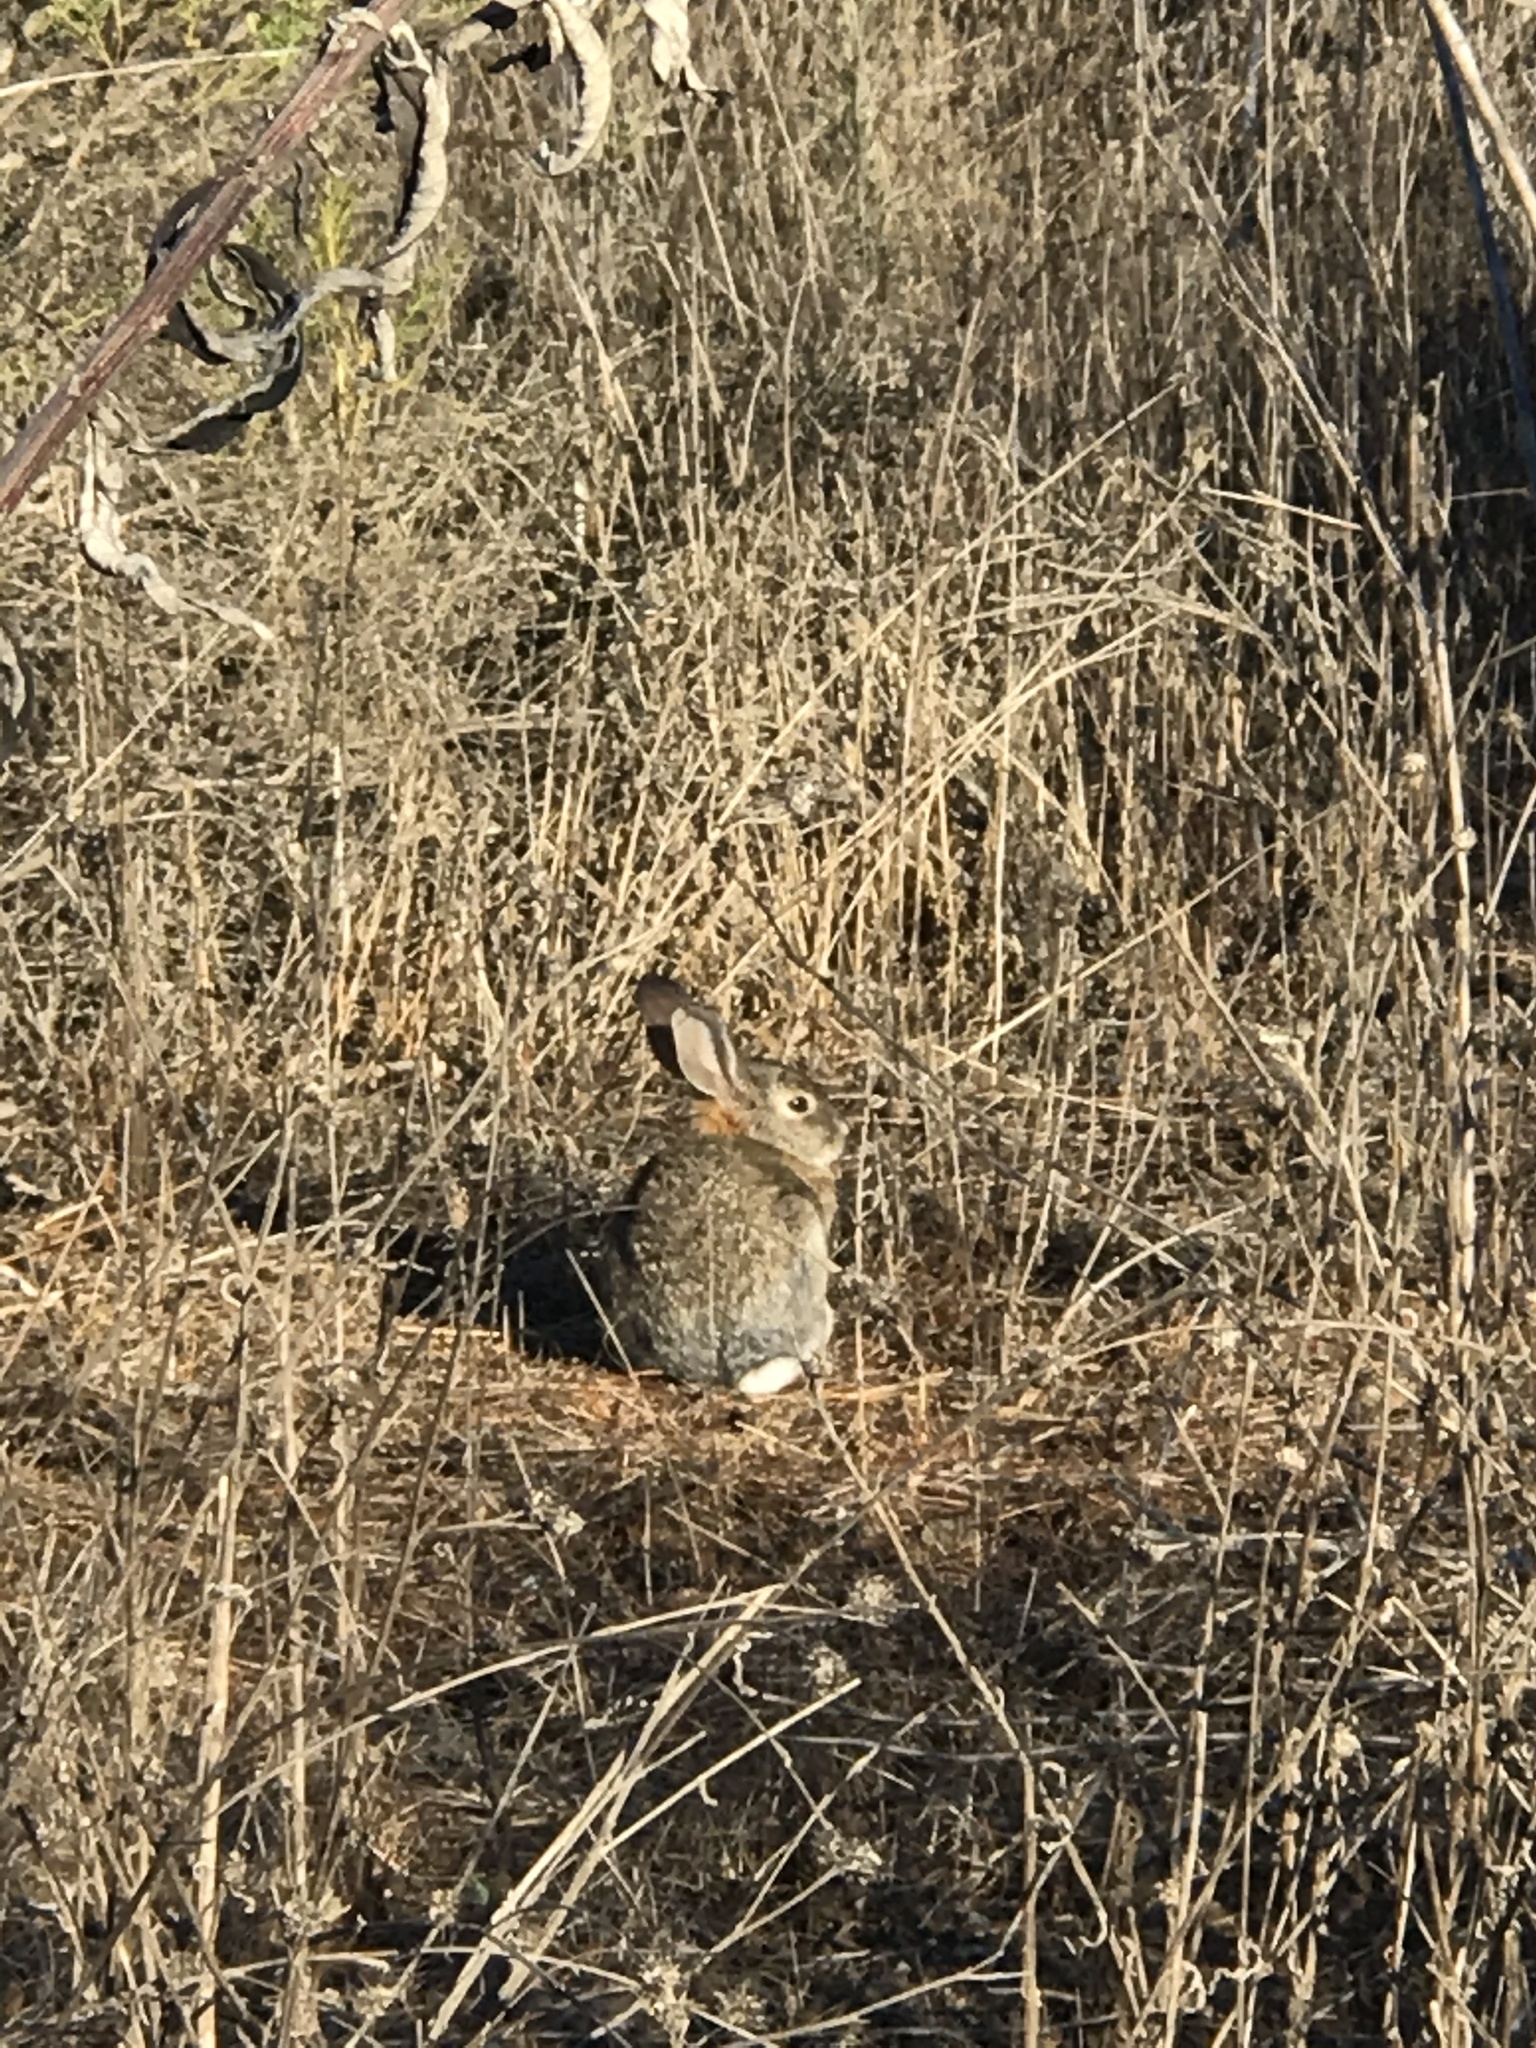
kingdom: Animalia
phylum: Chordata
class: Mammalia
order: Lagomorpha
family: Leporidae
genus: Sylvilagus
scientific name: Sylvilagus audubonii
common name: Desert cottontail
